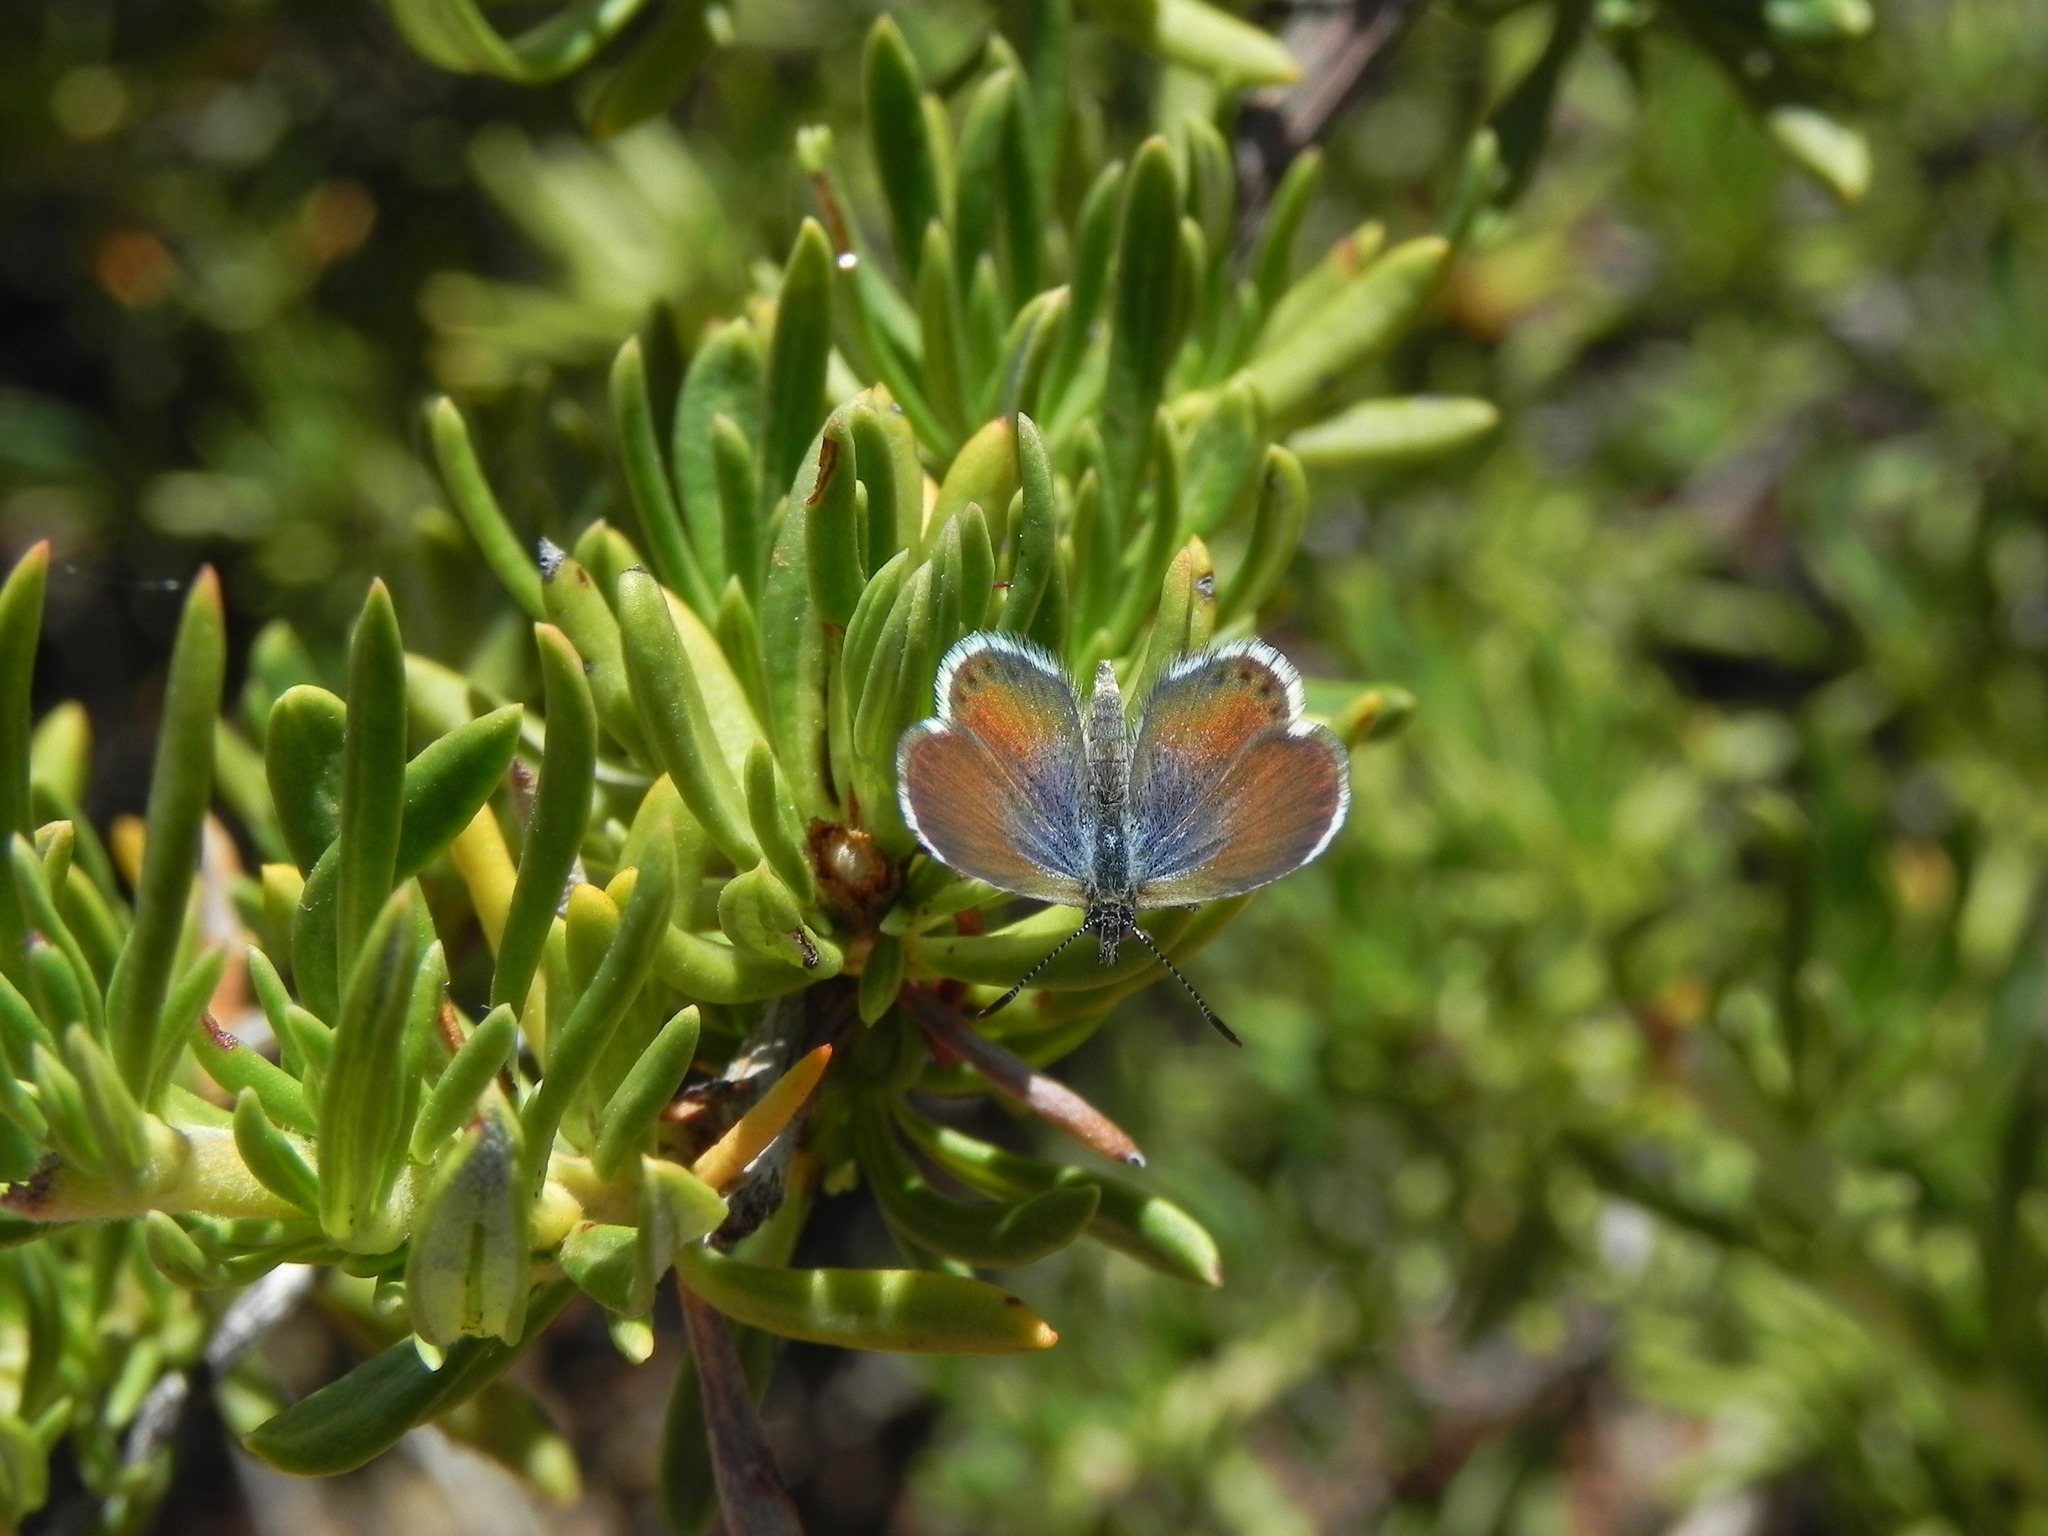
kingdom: Animalia
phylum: Arthropoda
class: Insecta
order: Lepidoptera
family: Lycaenidae
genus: Brephidium
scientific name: Brephidium exilis
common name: Pygmy blue
